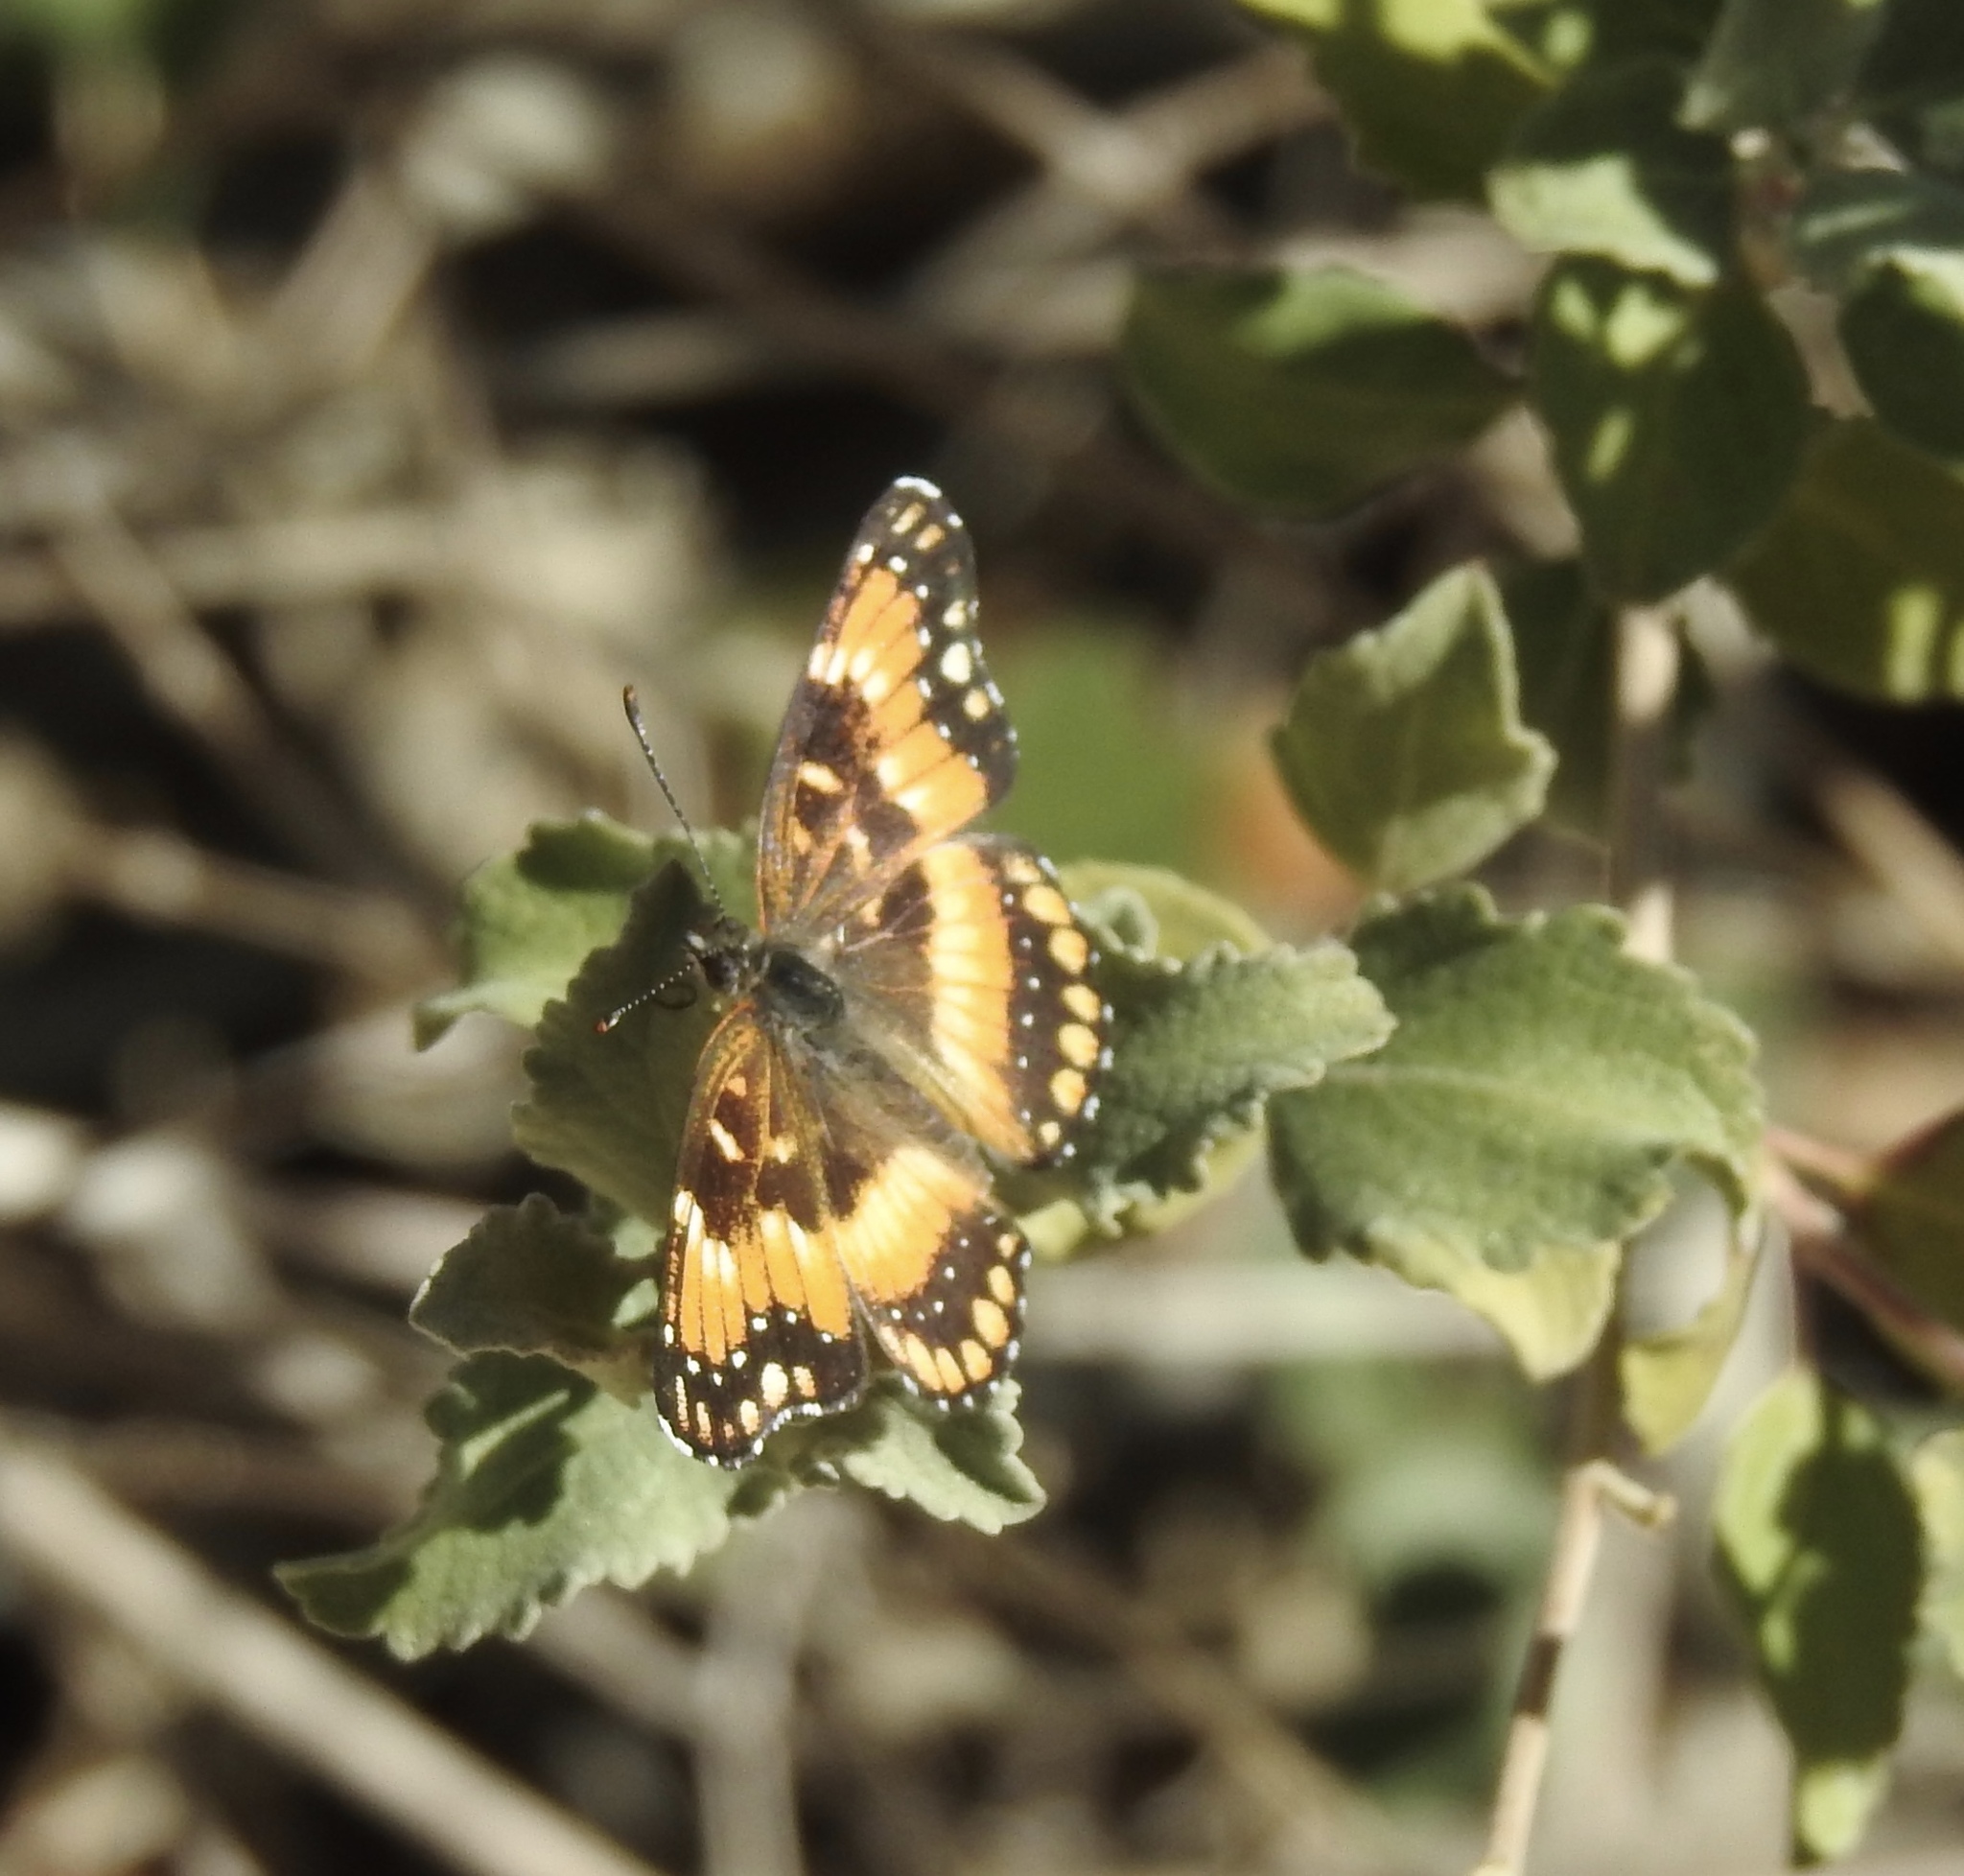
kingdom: Animalia
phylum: Arthropoda
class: Insecta
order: Lepidoptera
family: Nymphalidae
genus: Chlosyne
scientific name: Chlosyne californica
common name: California patch
